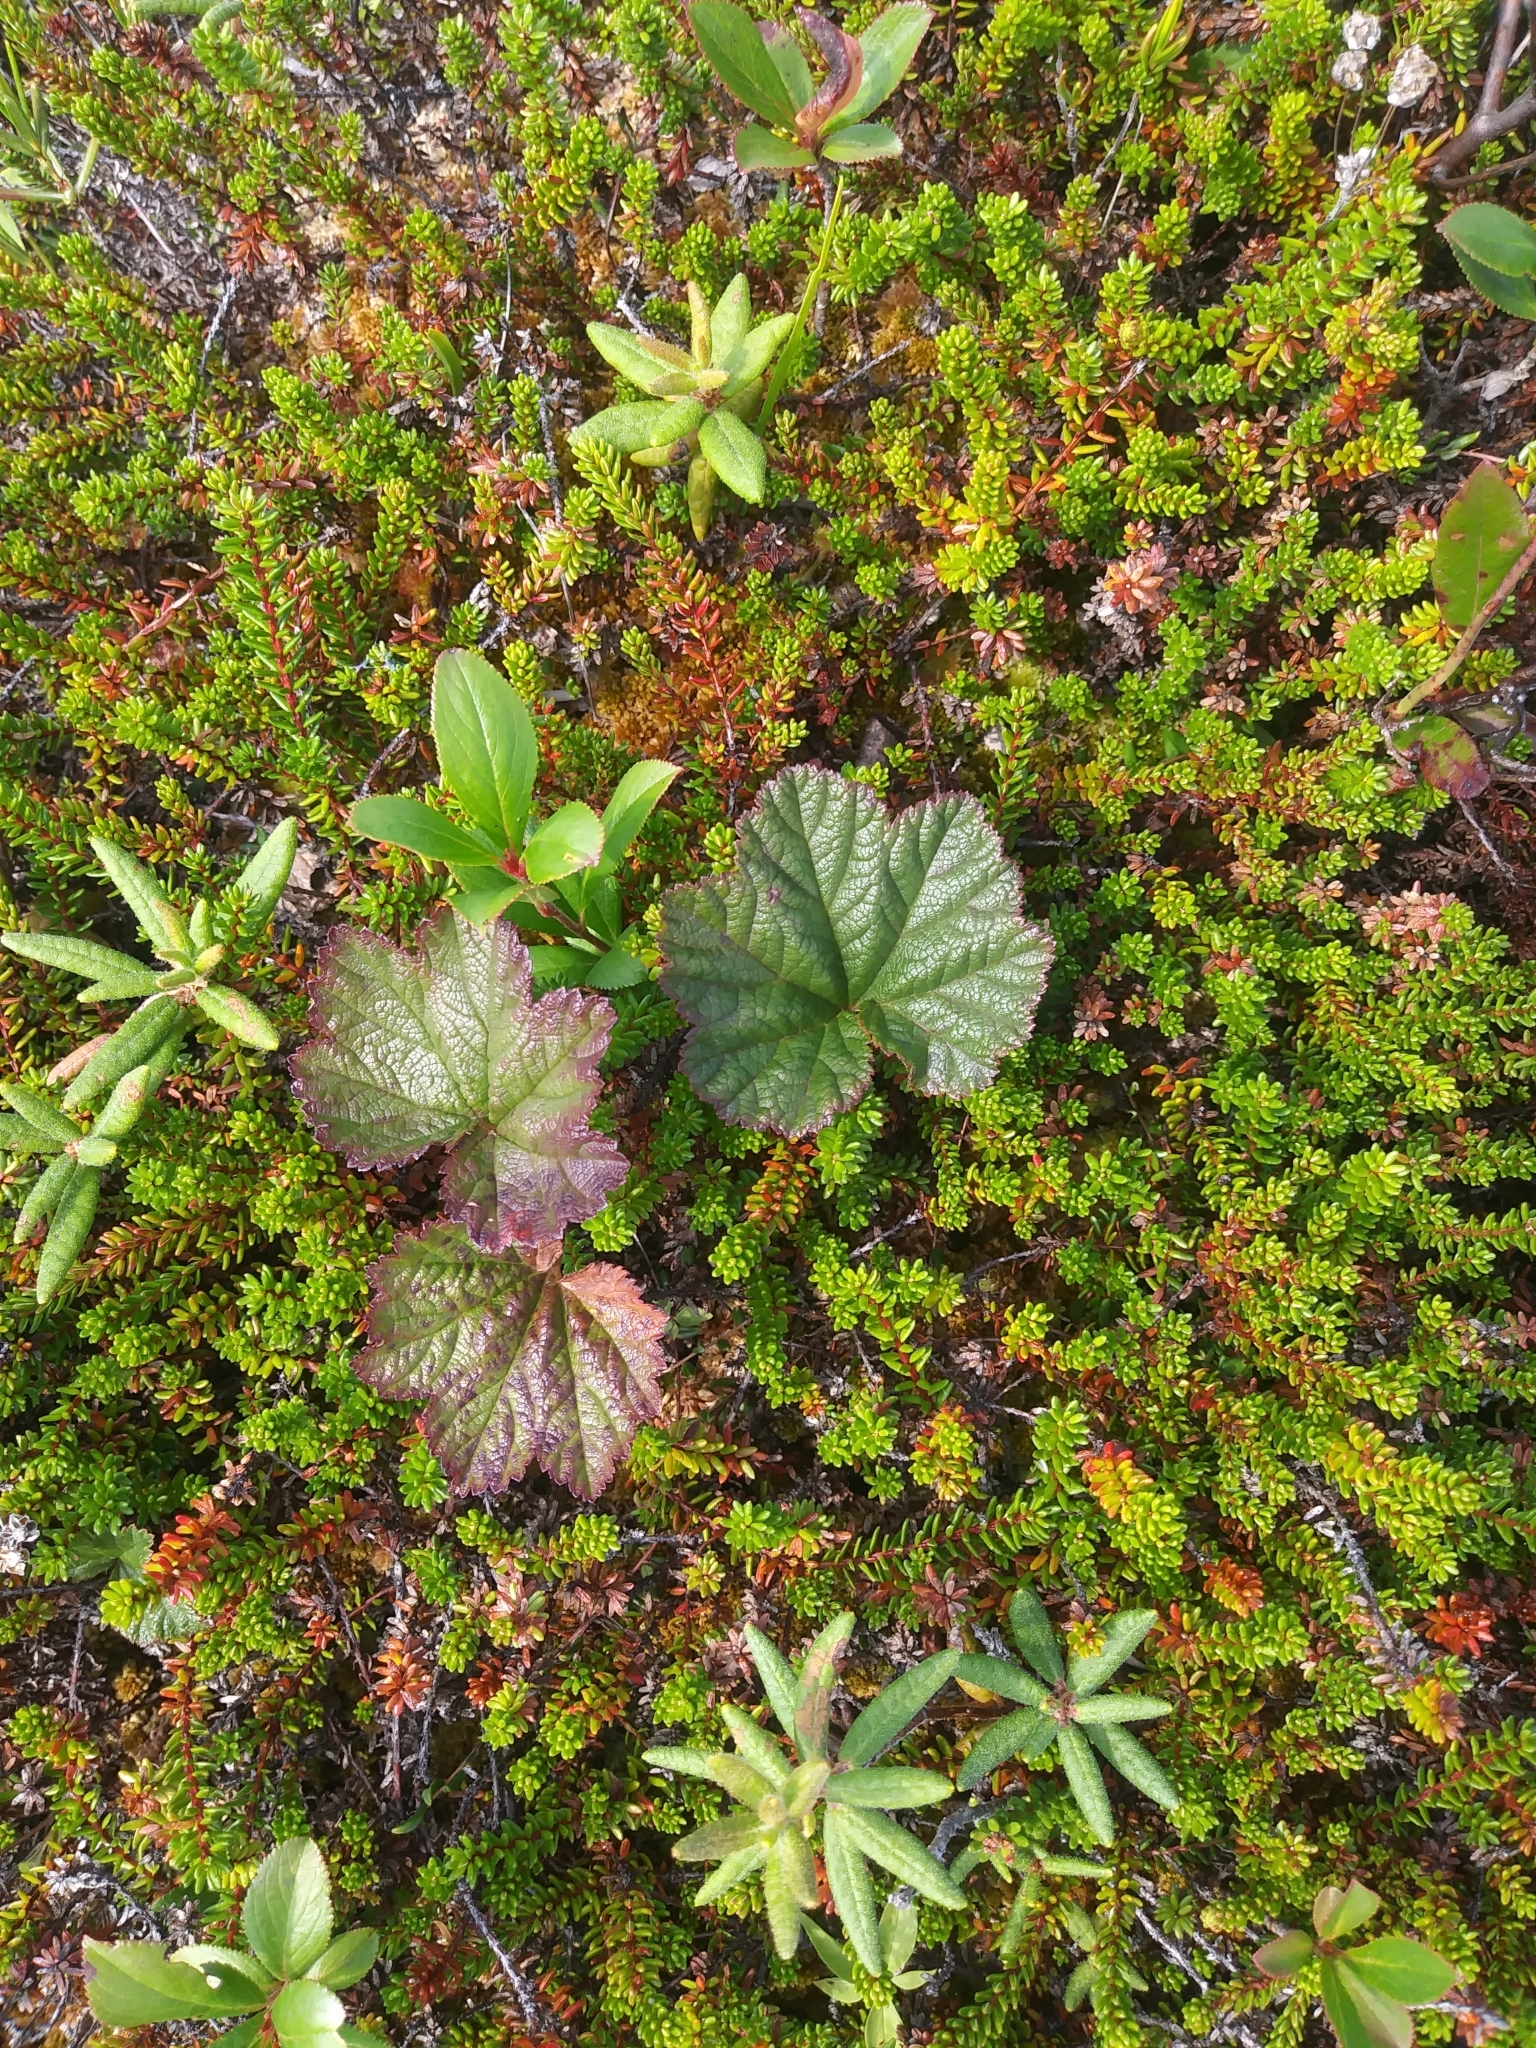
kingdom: Plantae
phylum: Tracheophyta
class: Magnoliopsida
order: Rosales
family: Rosaceae
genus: Rubus
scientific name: Rubus chamaemorus
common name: Cloudberry
